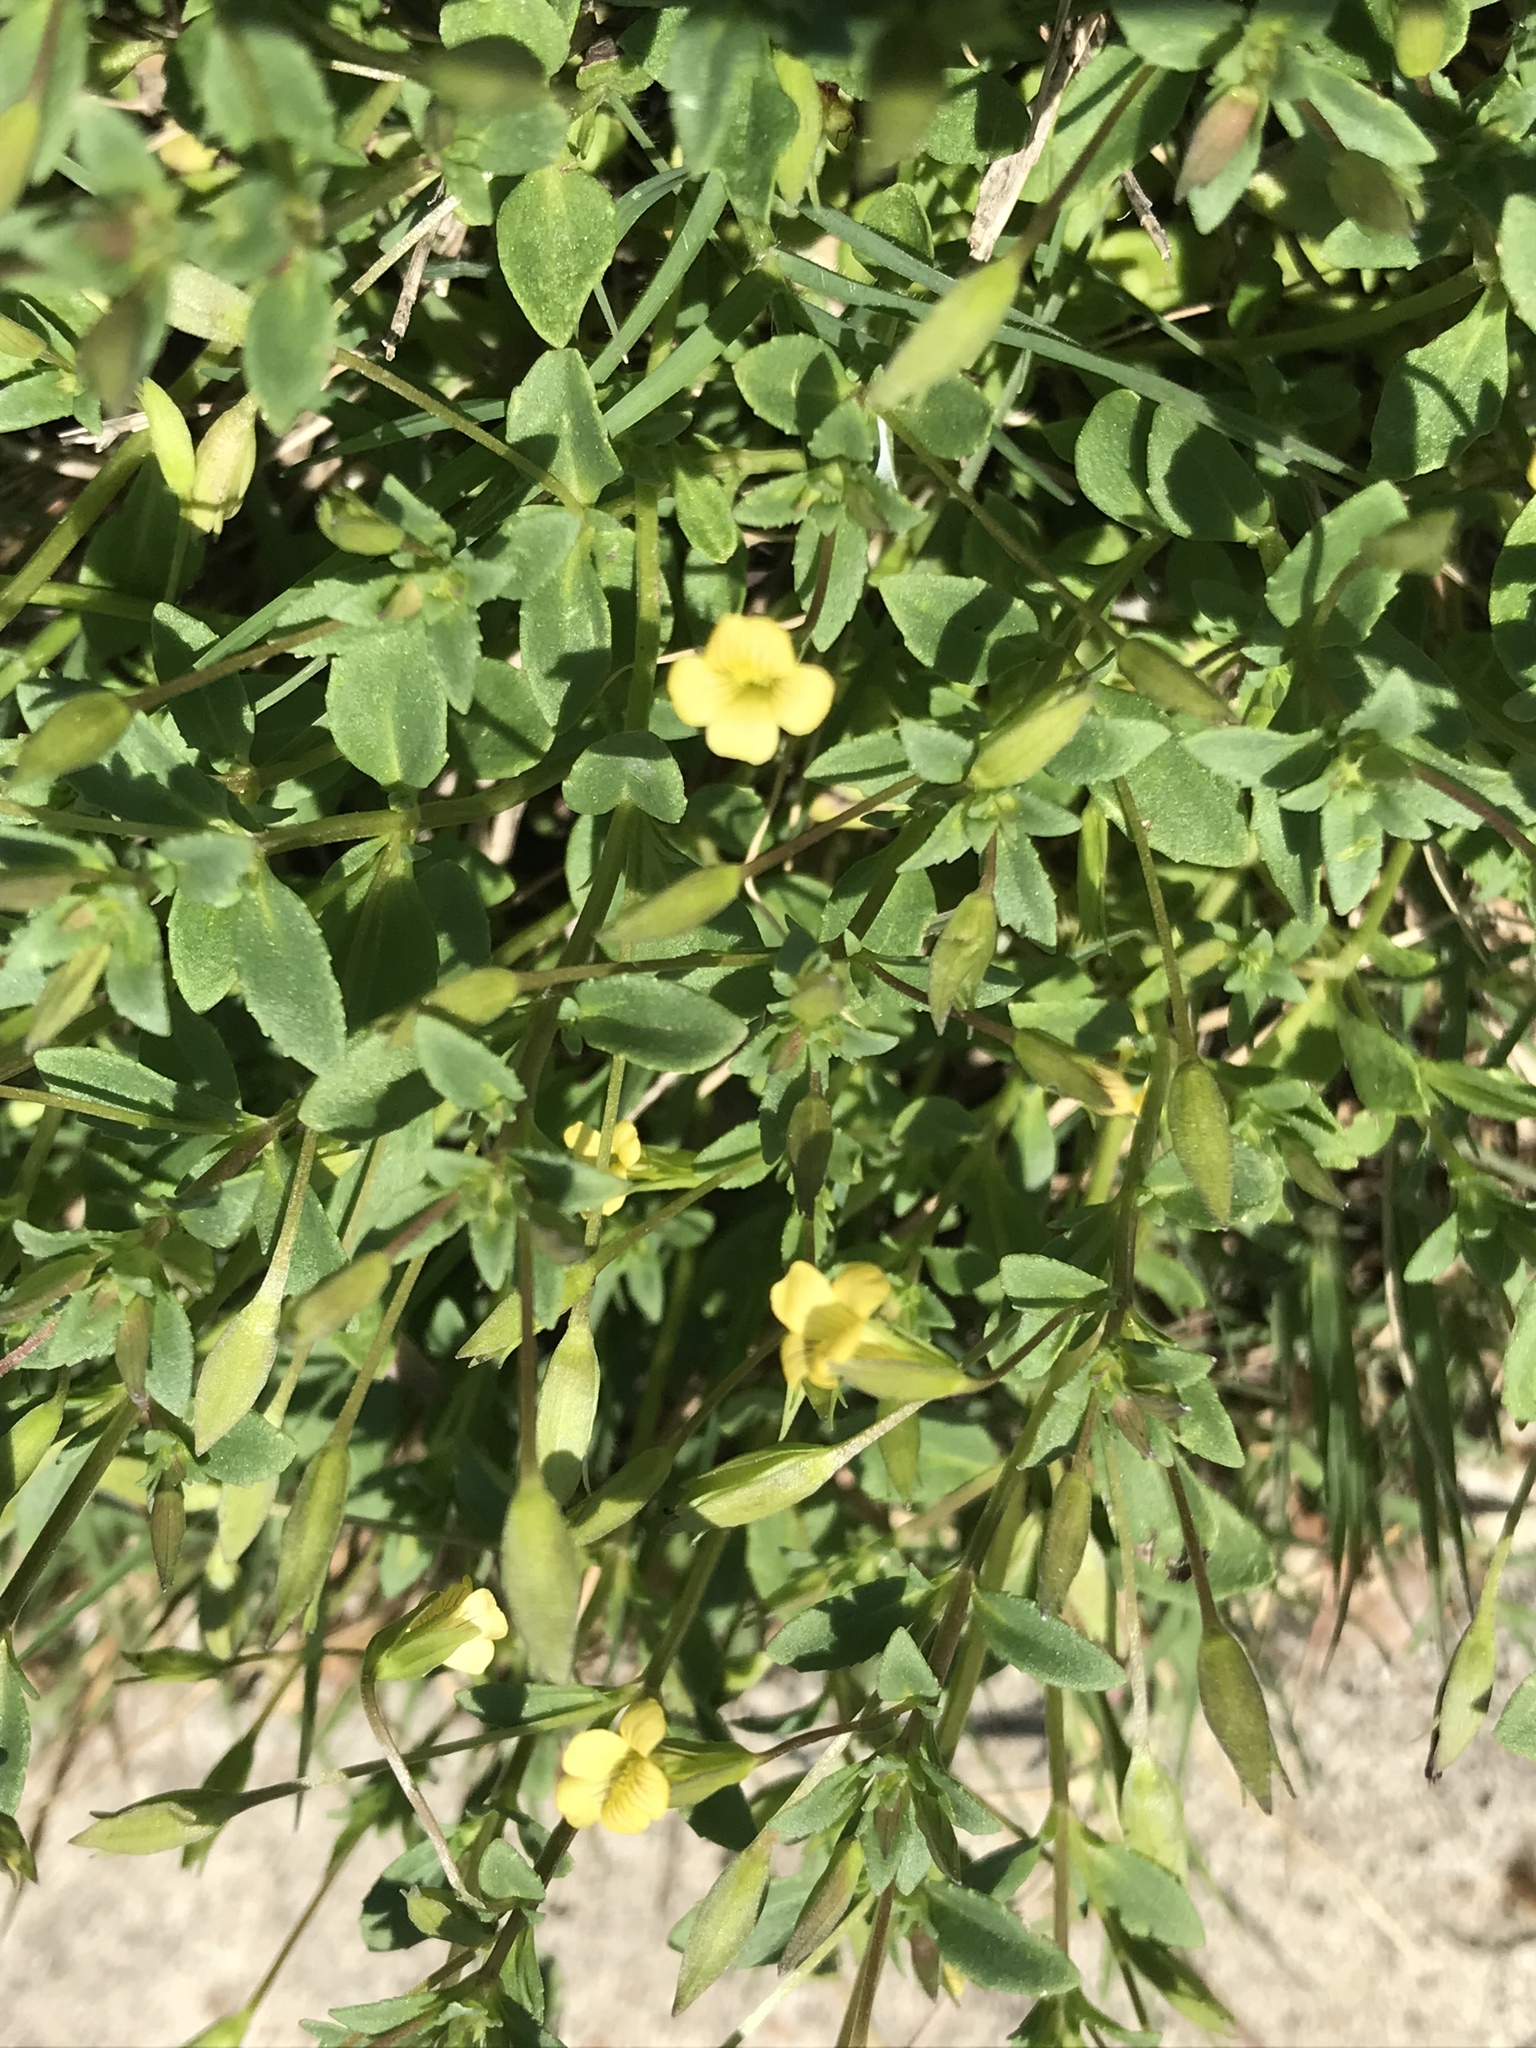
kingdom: Plantae
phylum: Tracheophyta
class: Magnoliopsida
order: Lamiales
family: Plantaginaceae
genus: Mecardonia
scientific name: Mecardonia procumbens
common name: Baby jump-up
